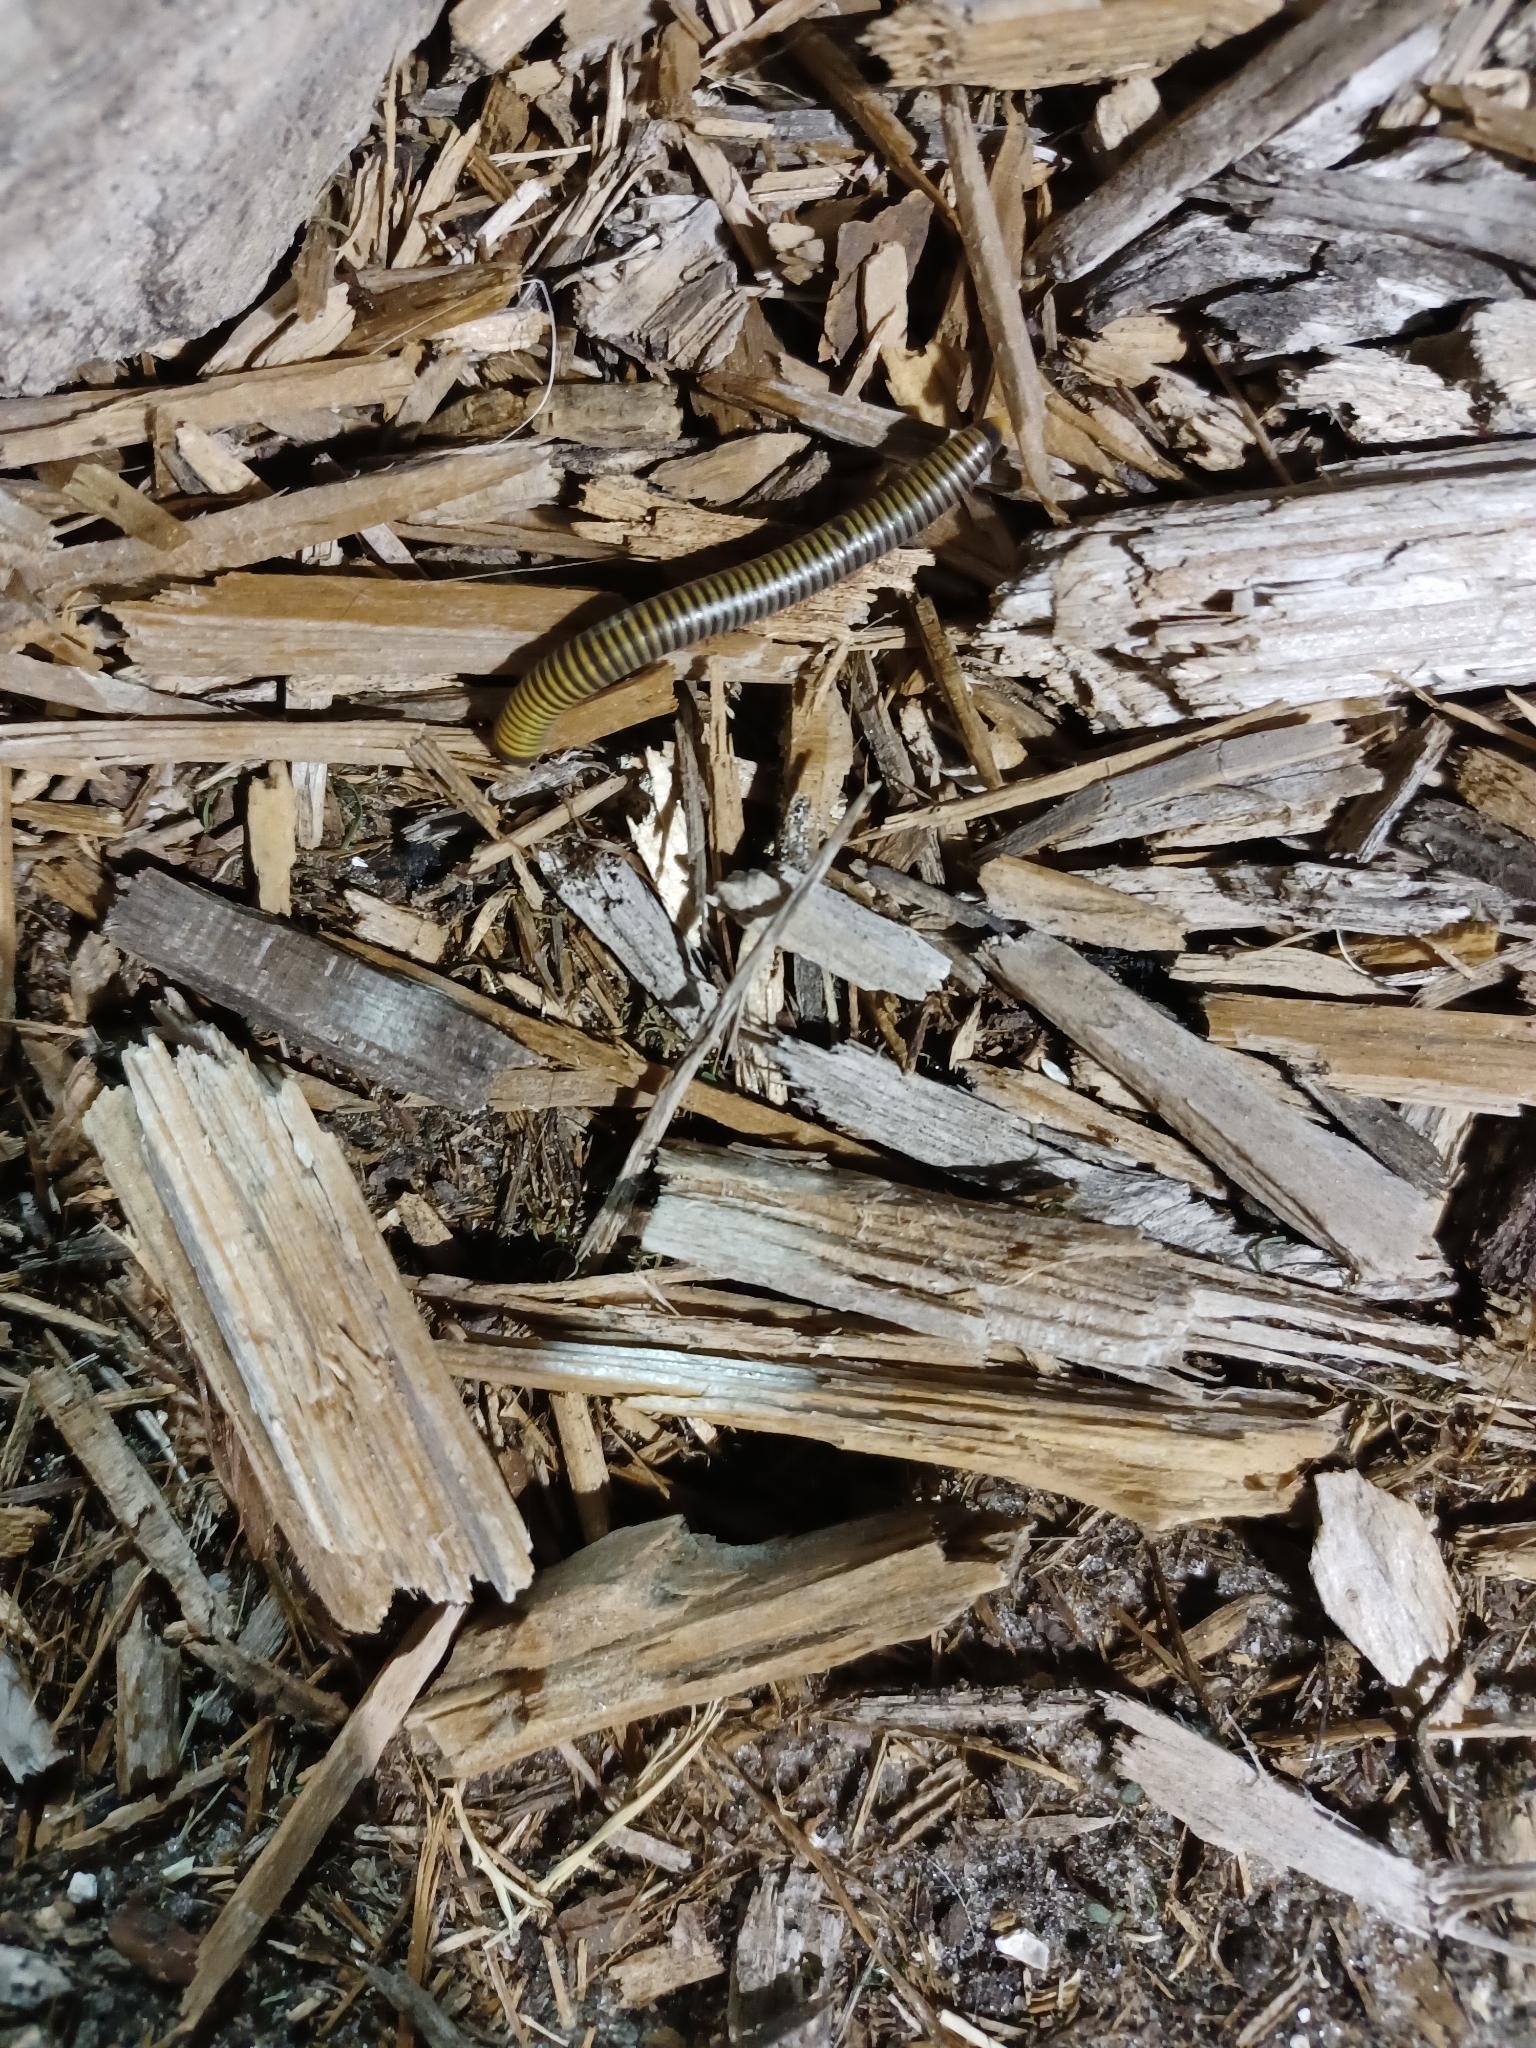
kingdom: Animalia
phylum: Arthropoda
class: Diplopoda
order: Spirobolida
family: Rhinocricidae
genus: Anadenobolus
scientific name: Anadenobolus monilicornis
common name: Caribbean millipede
